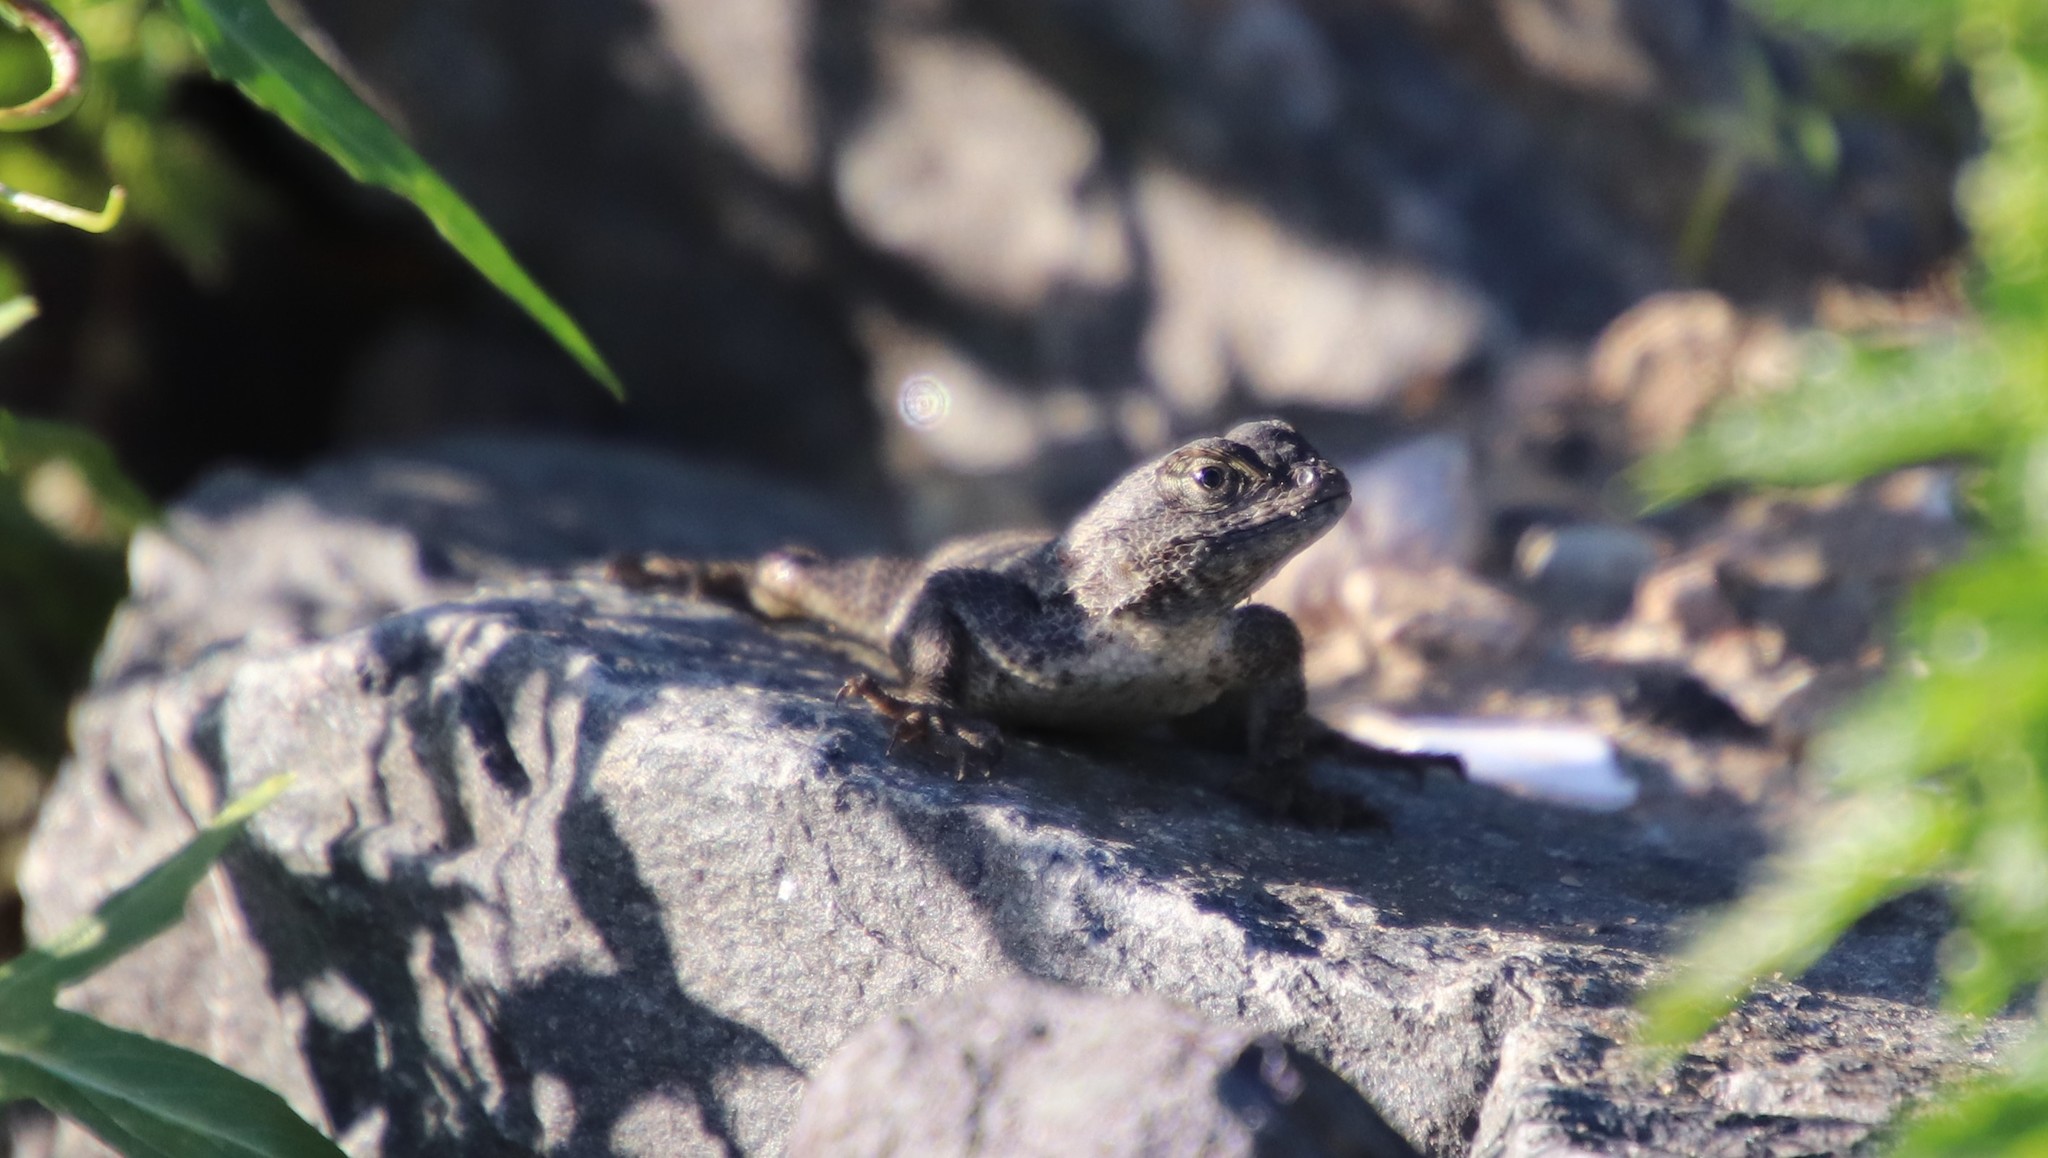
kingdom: Animalia
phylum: Chordata
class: Squamata
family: Phrynosomatidae
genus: Sceloporus
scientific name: Sceloporus occidentalis
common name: Western fence lizard
